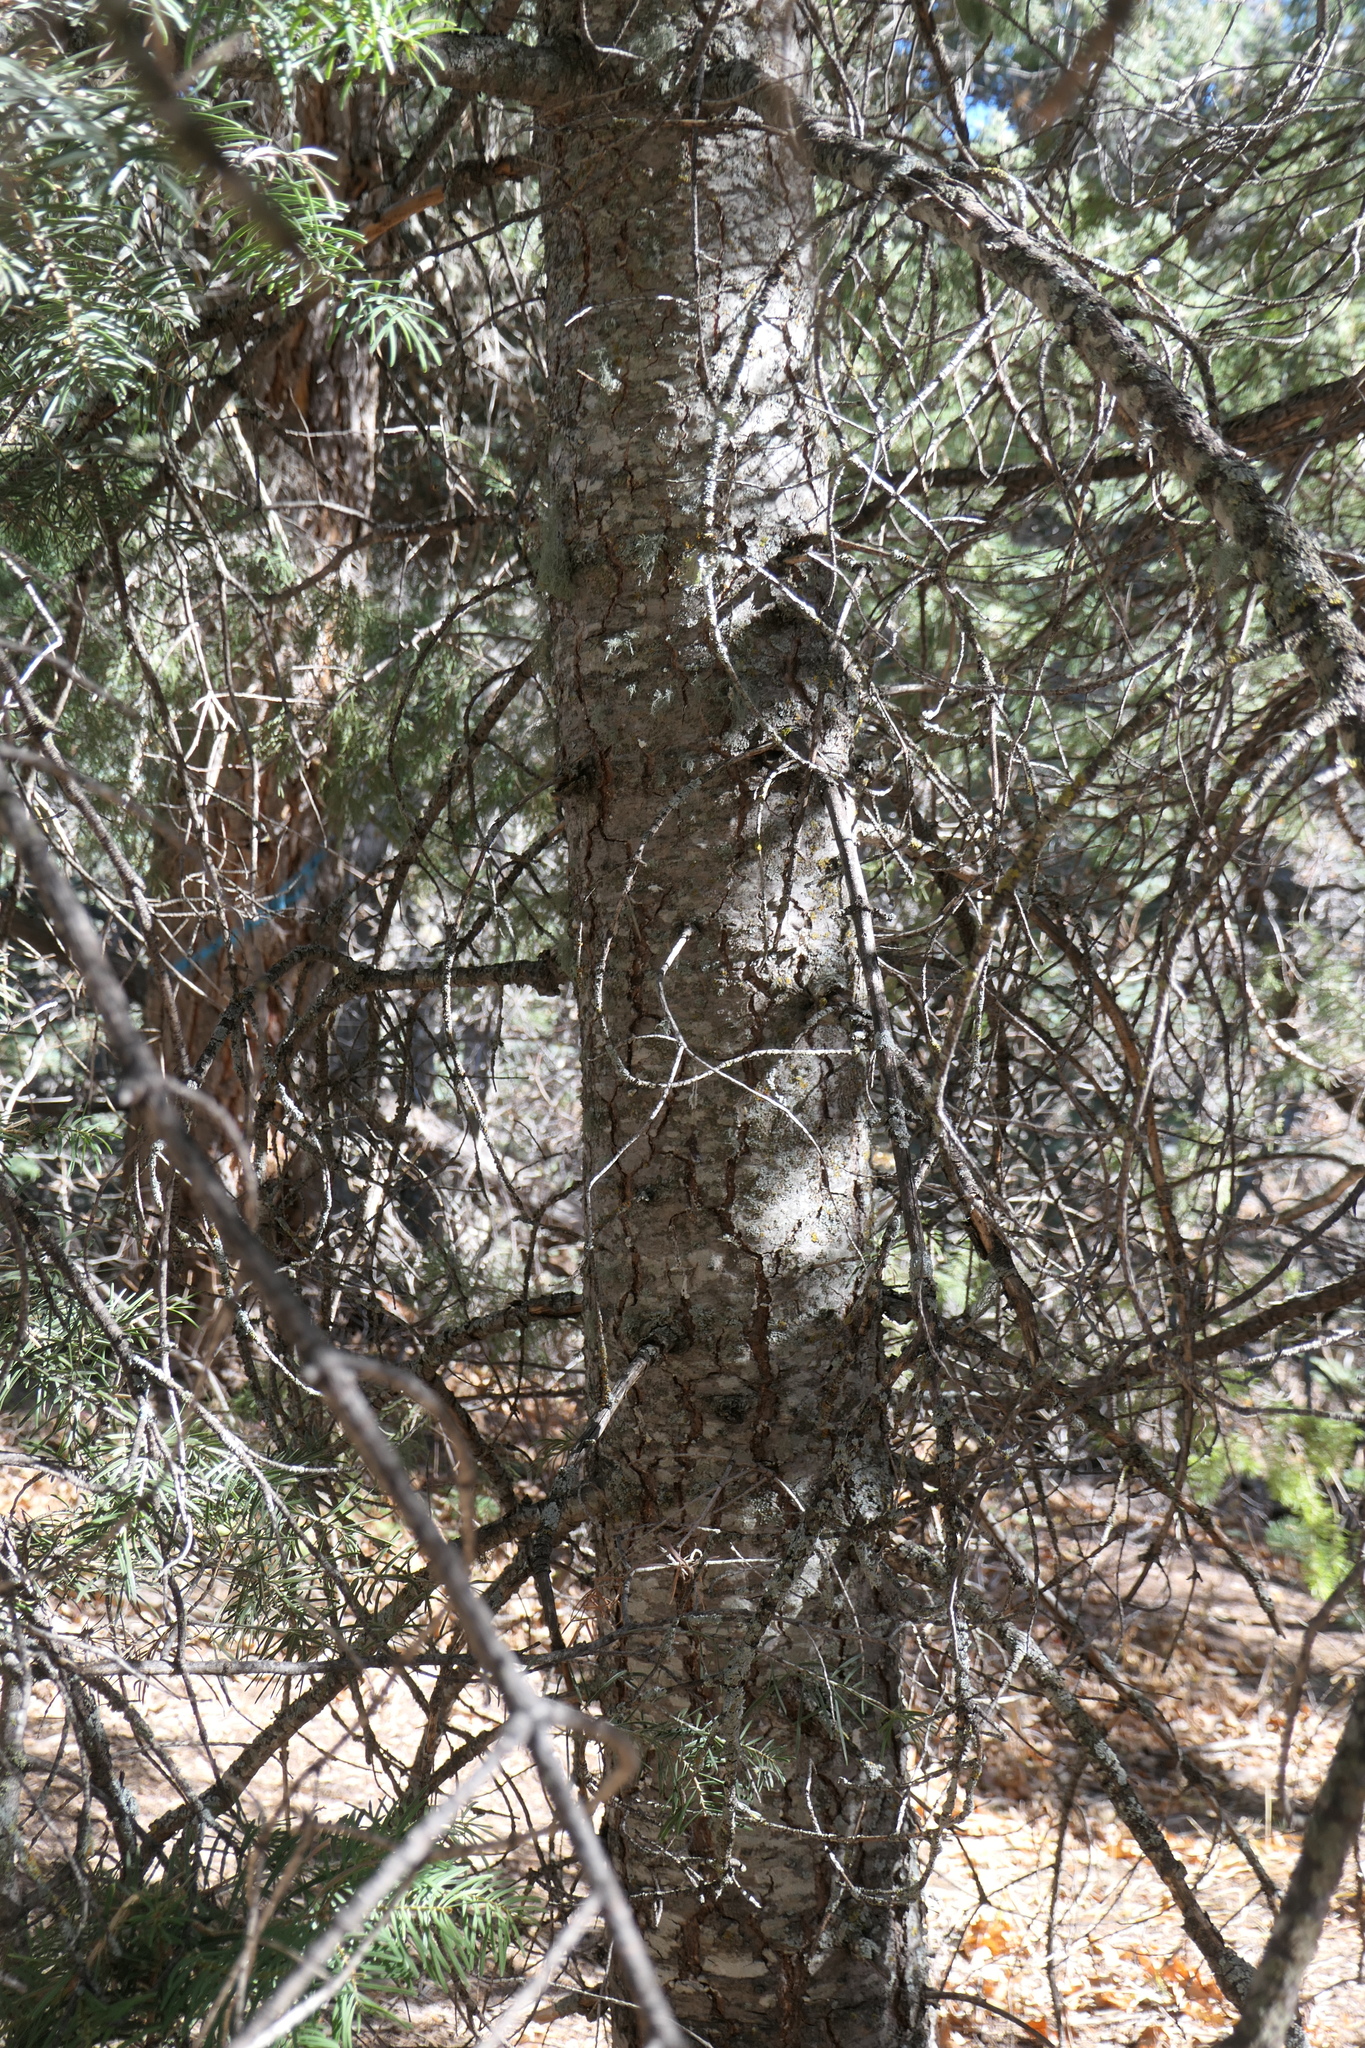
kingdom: Plantae
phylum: Tracheophyta
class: Pinopsida
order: Pinales
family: Pinaceae
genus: Abies
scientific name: Abies concolor
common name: Colorado fir
